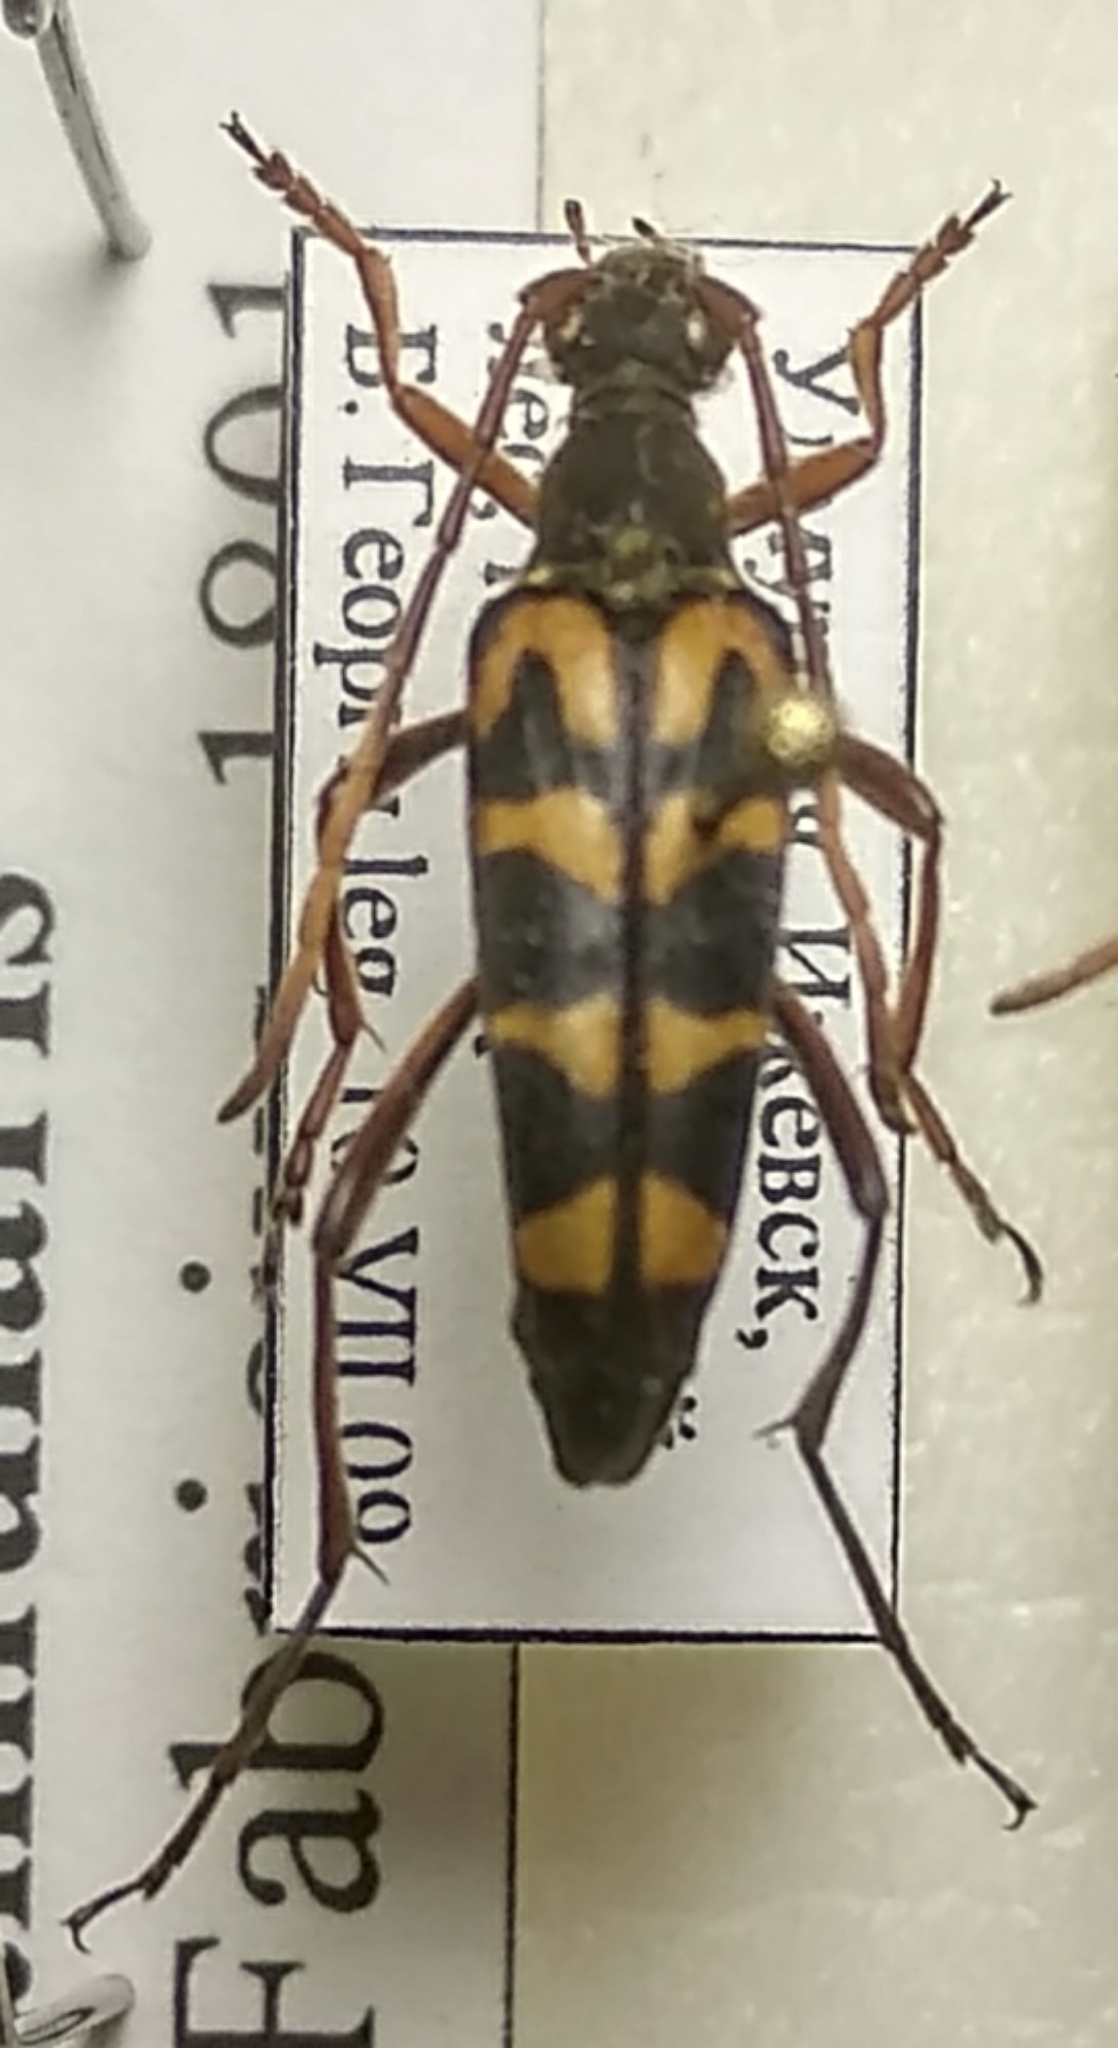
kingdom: Animalia
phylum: Arthropoda
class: Insecta
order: Coleoptera
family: Cerambycidae
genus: Leptura
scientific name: Leptura annularis
